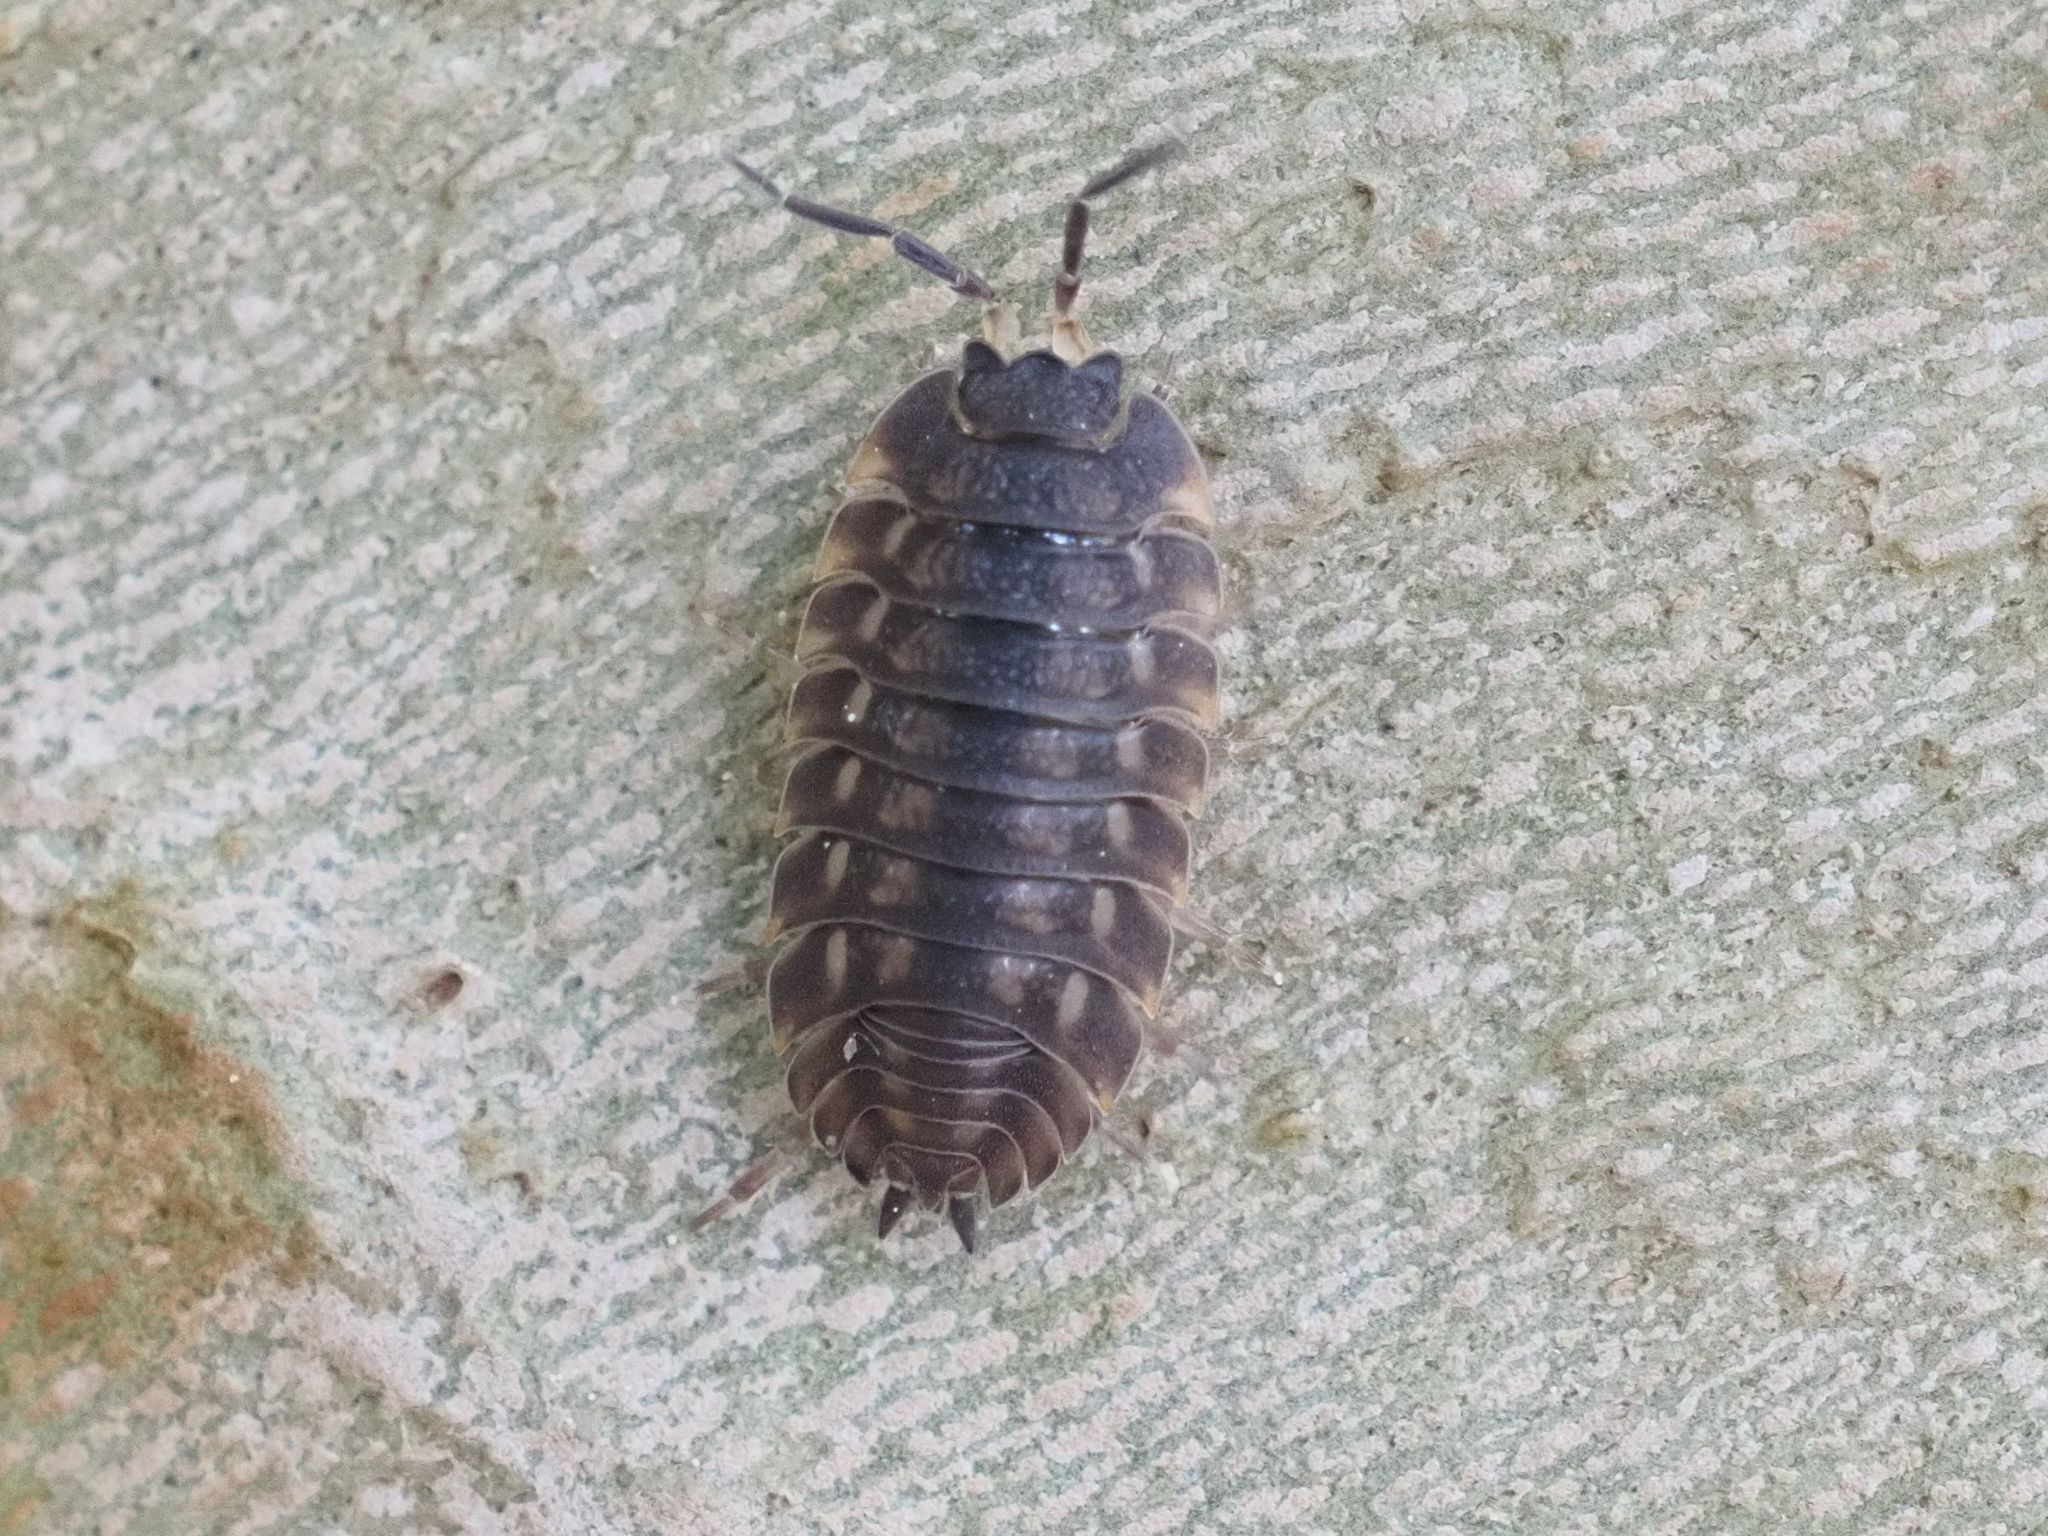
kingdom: Animalia
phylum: Arthropoda
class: Malacostraca
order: Isopoda
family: Trachelipodidae
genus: Trachelipus
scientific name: Trachelipus ratzeburgii
